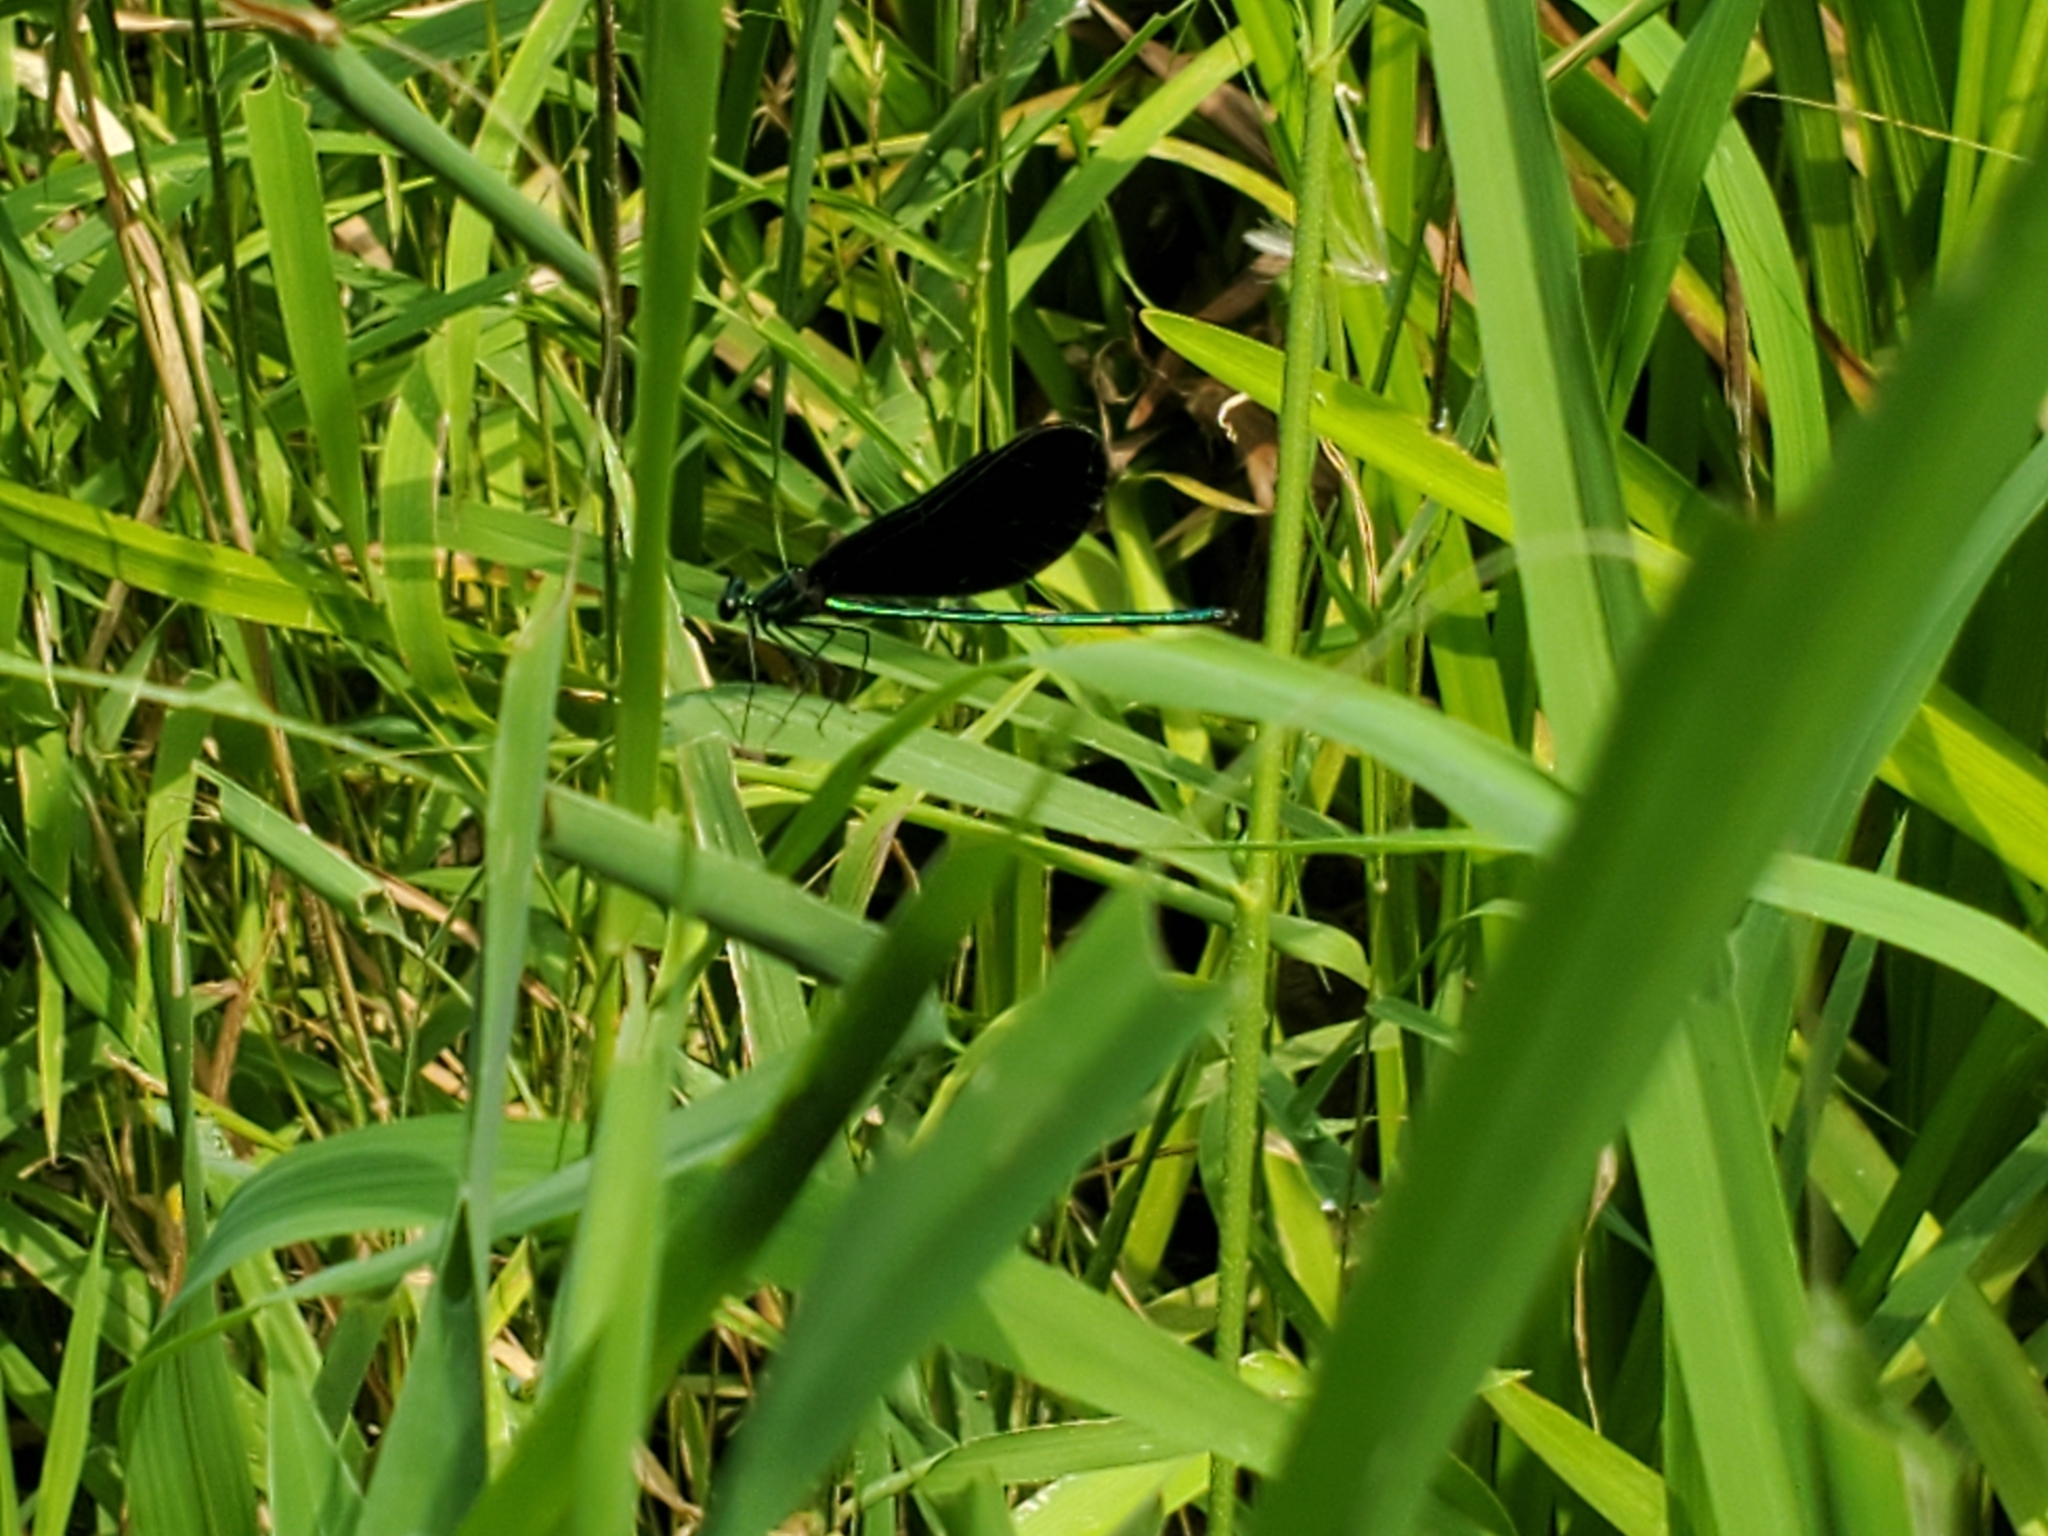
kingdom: Animalia
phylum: Arthropoda
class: Insecta
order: Odonata
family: Calopterygidae
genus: Calopteryx
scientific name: Calopteryx maculata
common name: Ebony jewelwing
